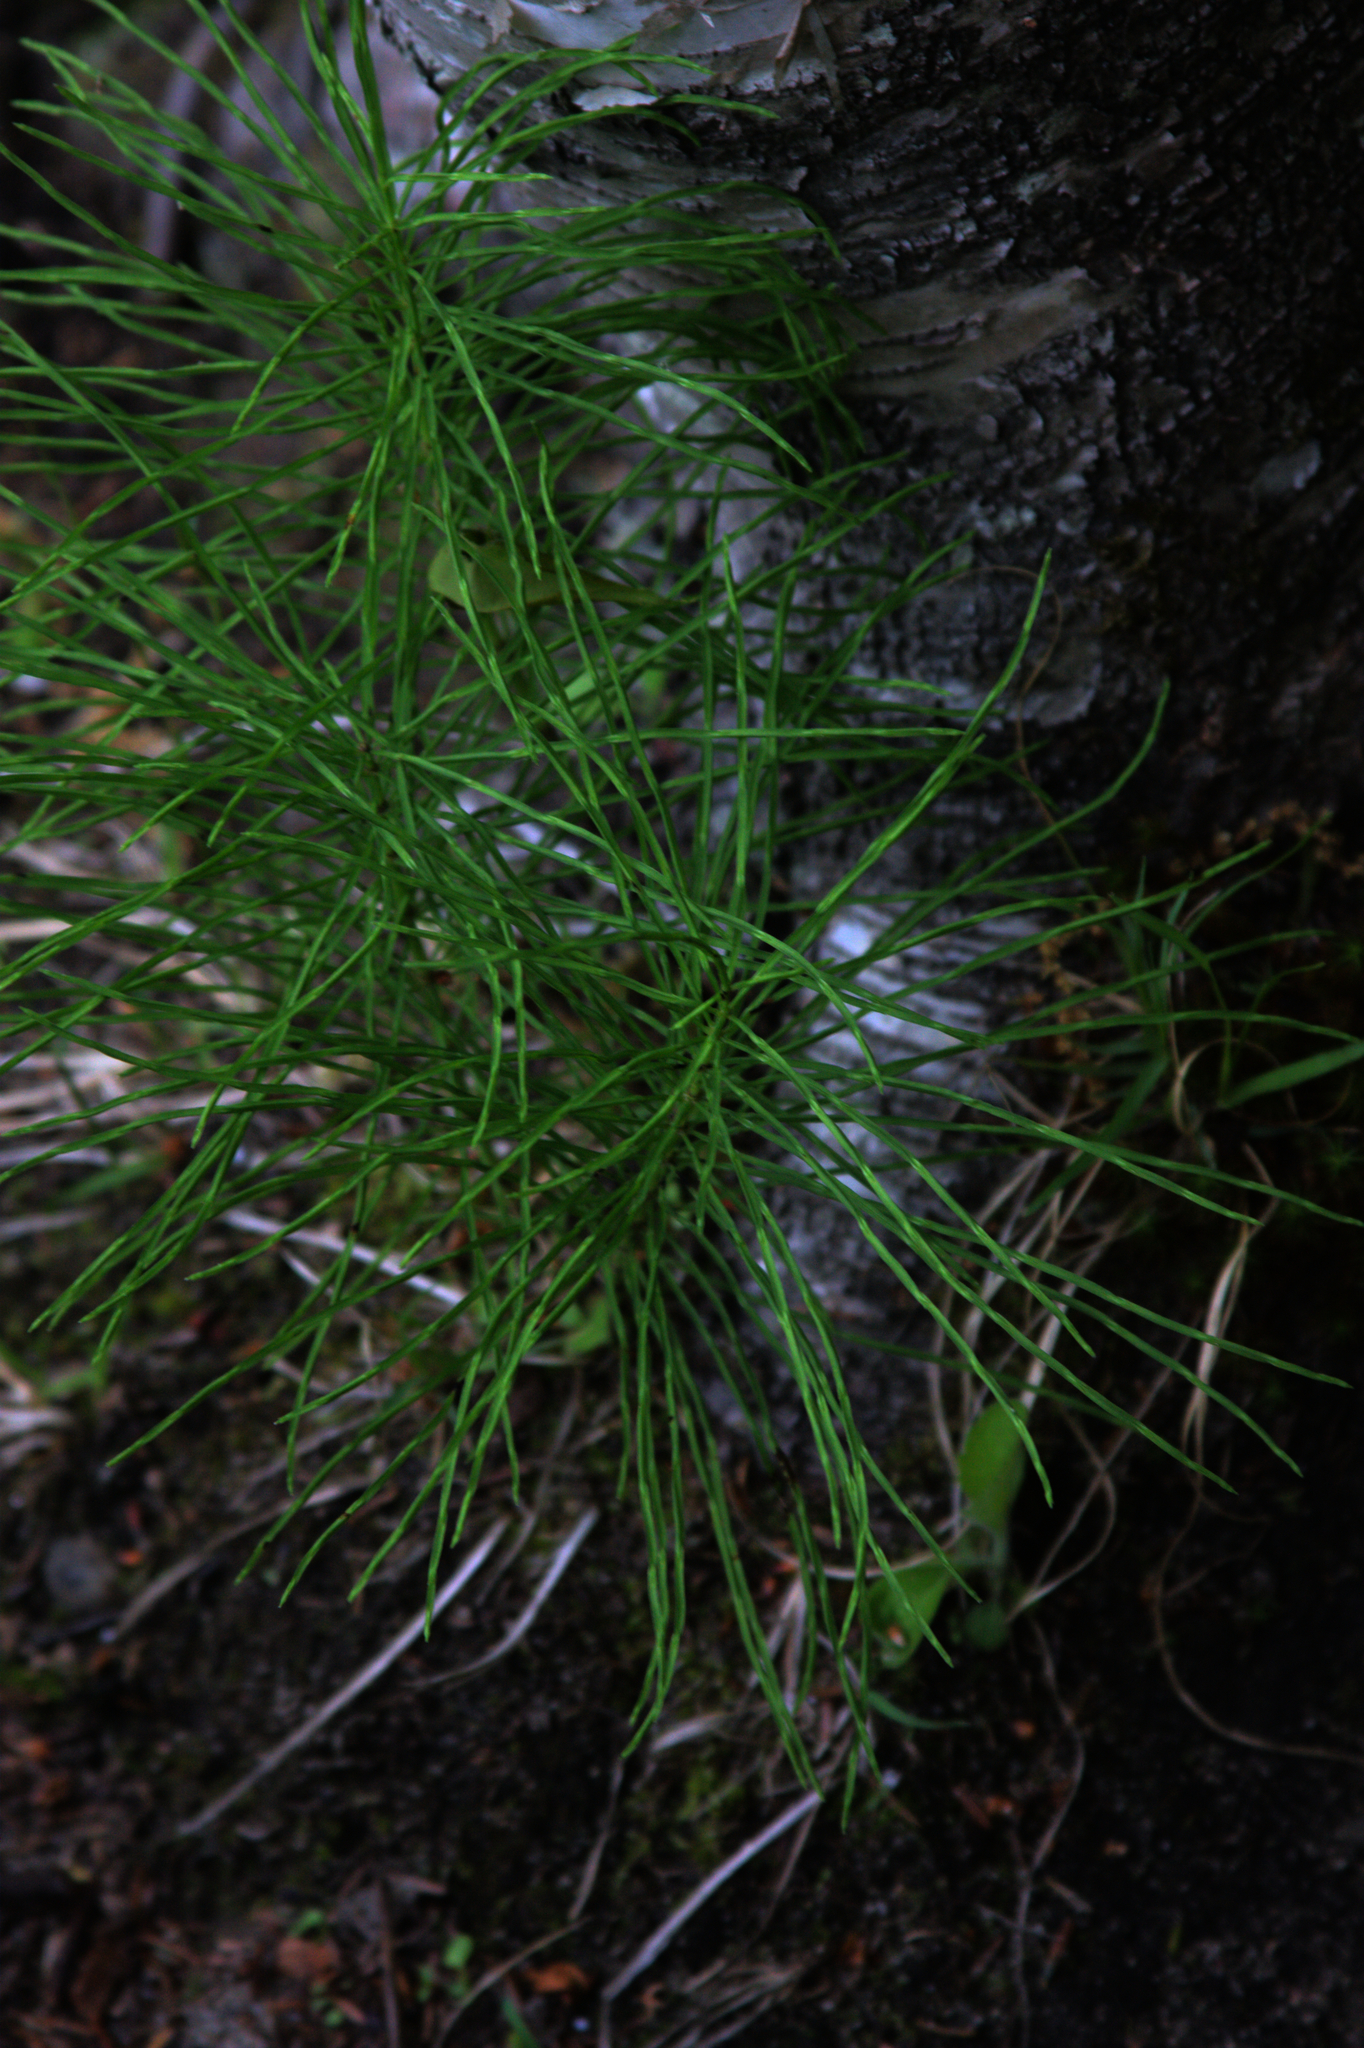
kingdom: Plantae
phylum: Tracheophyta
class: Polypodiopsida
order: Equisetales
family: Equisetaceae
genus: Equisetum
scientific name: Equisetum arvense
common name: Field horsetail
